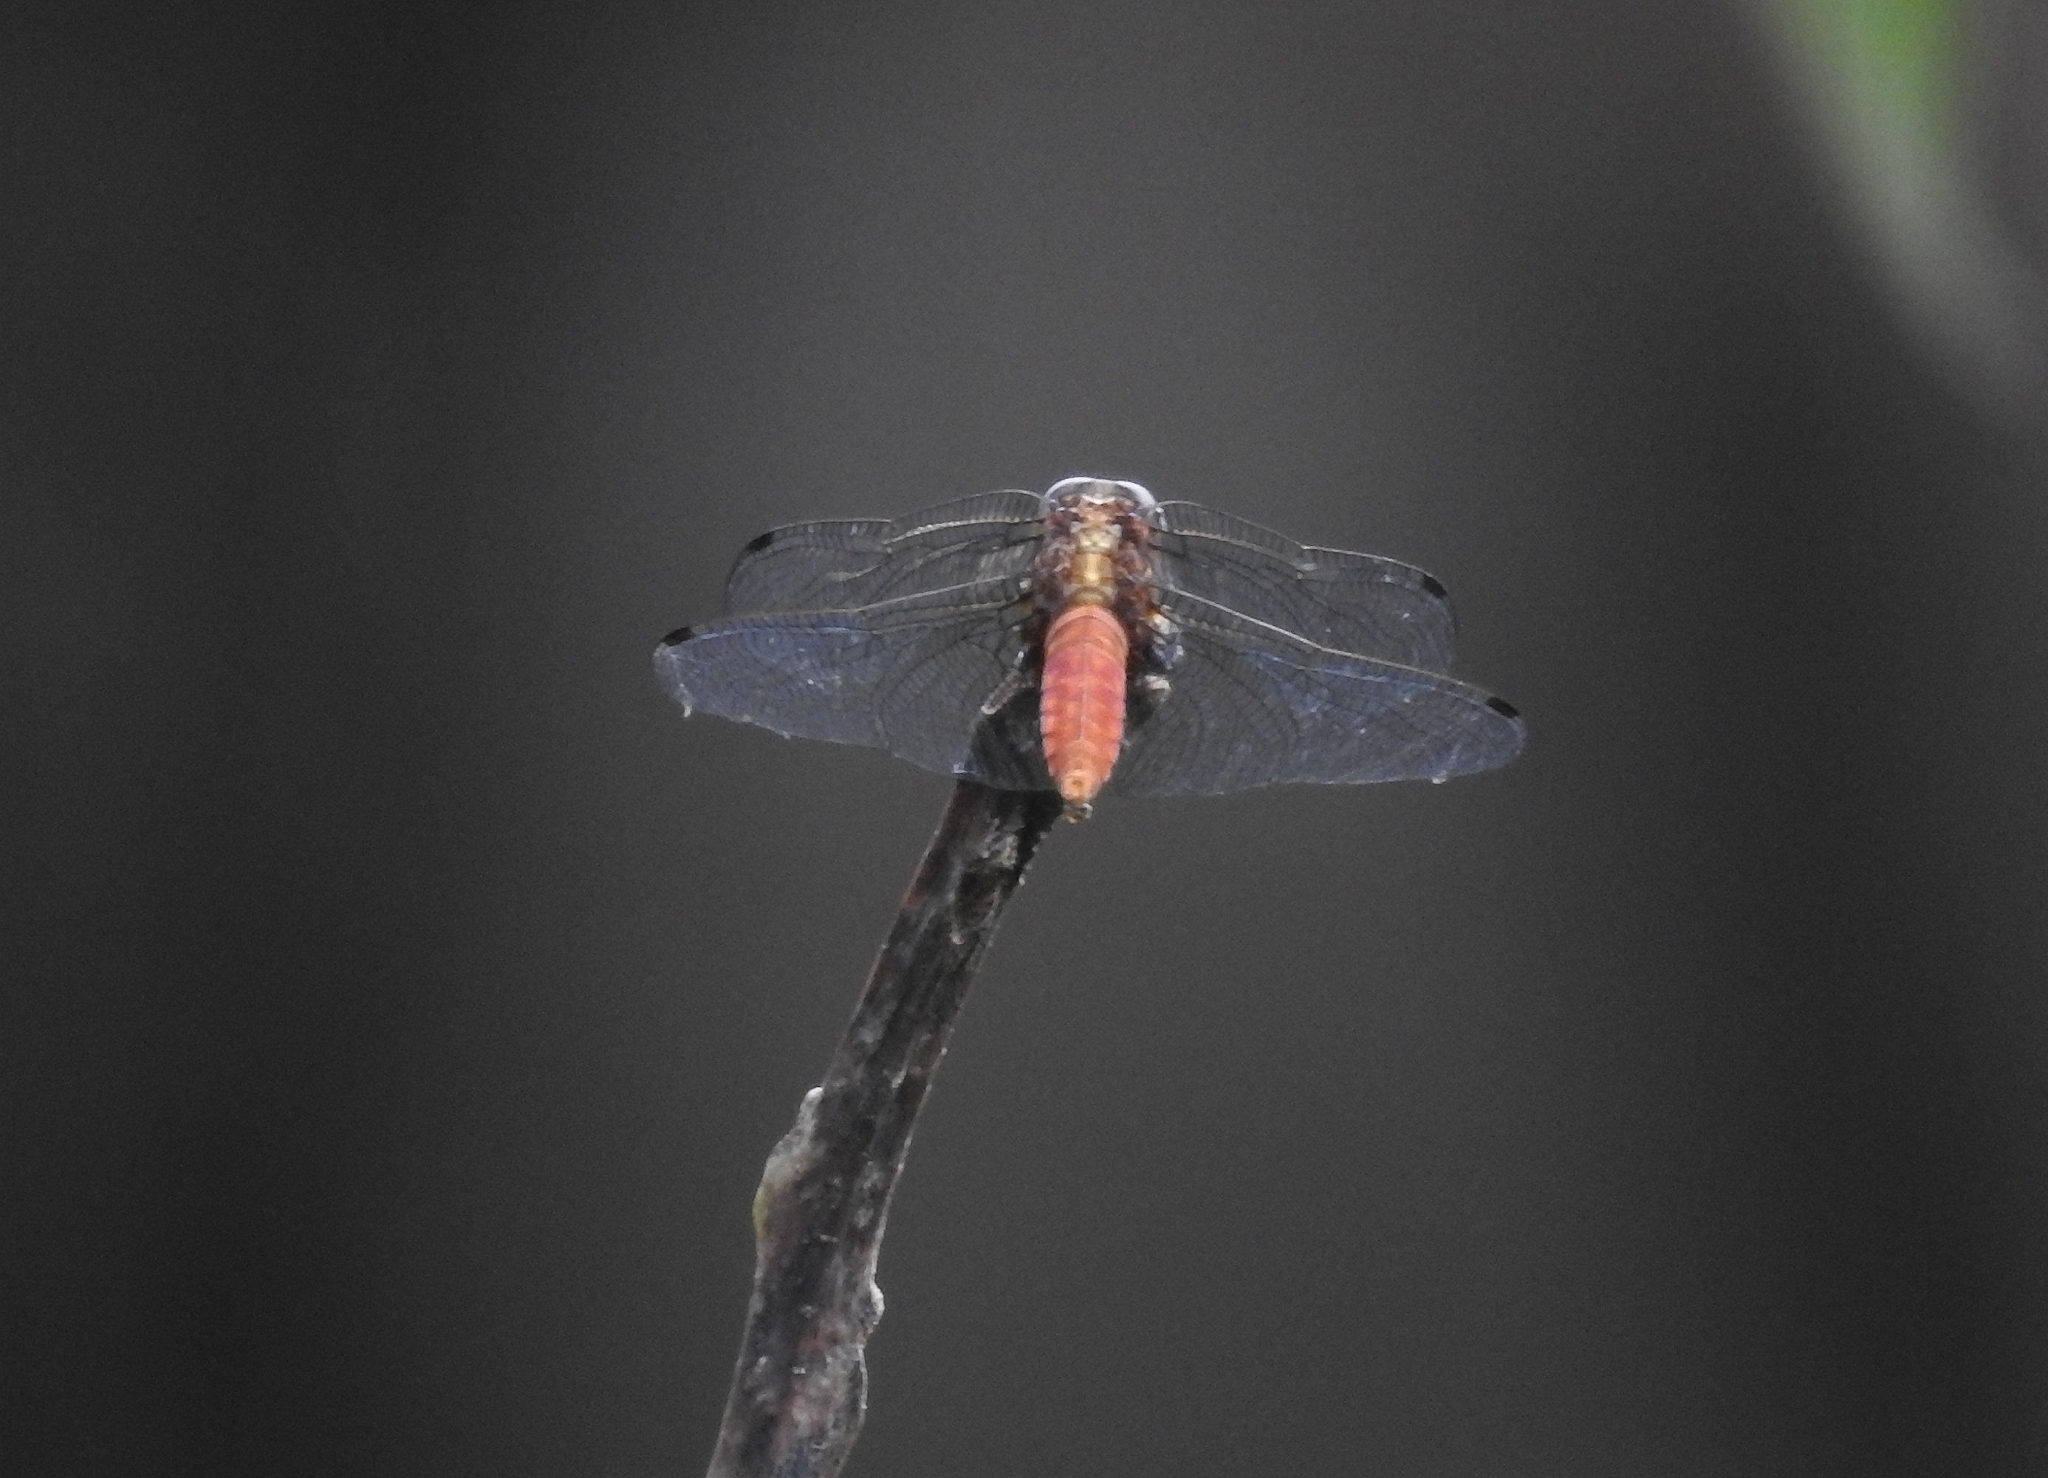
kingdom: Animalia
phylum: Arthropoda
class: Insecta
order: Odonata
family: Libellulidae
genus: Orthetrum
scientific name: Orthetrum chrysis
